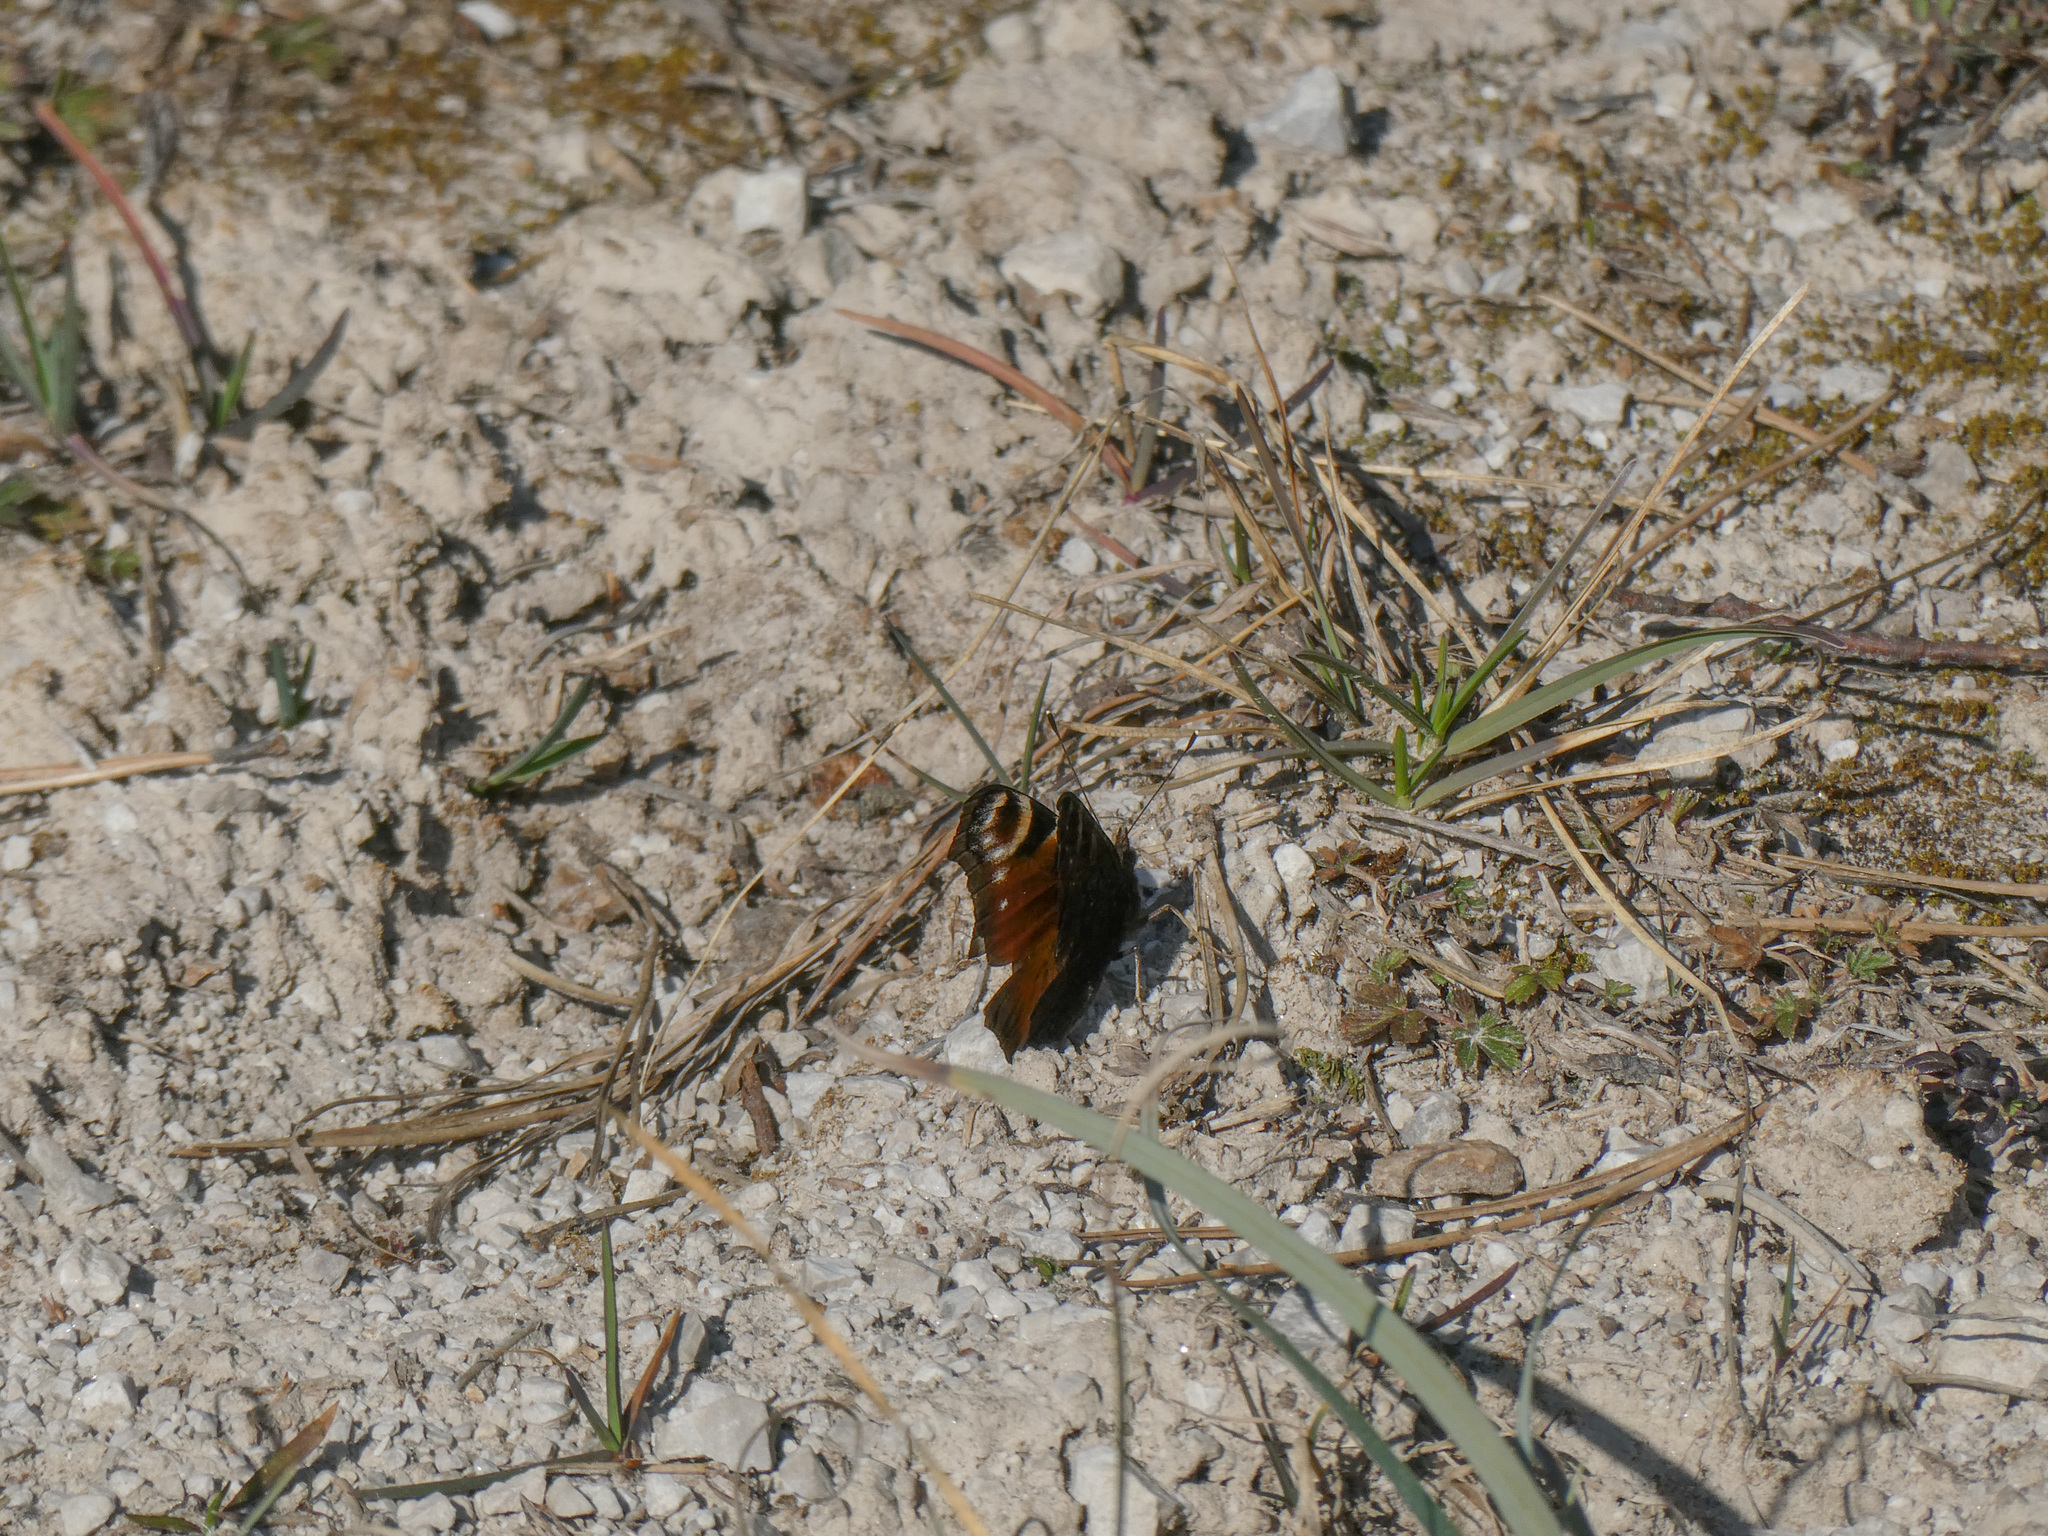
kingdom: Animalia
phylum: Arthropoda
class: Insecta
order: Lepidoptera
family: Nymphalidae
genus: Aglais
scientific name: Aglais io
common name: Peacock
